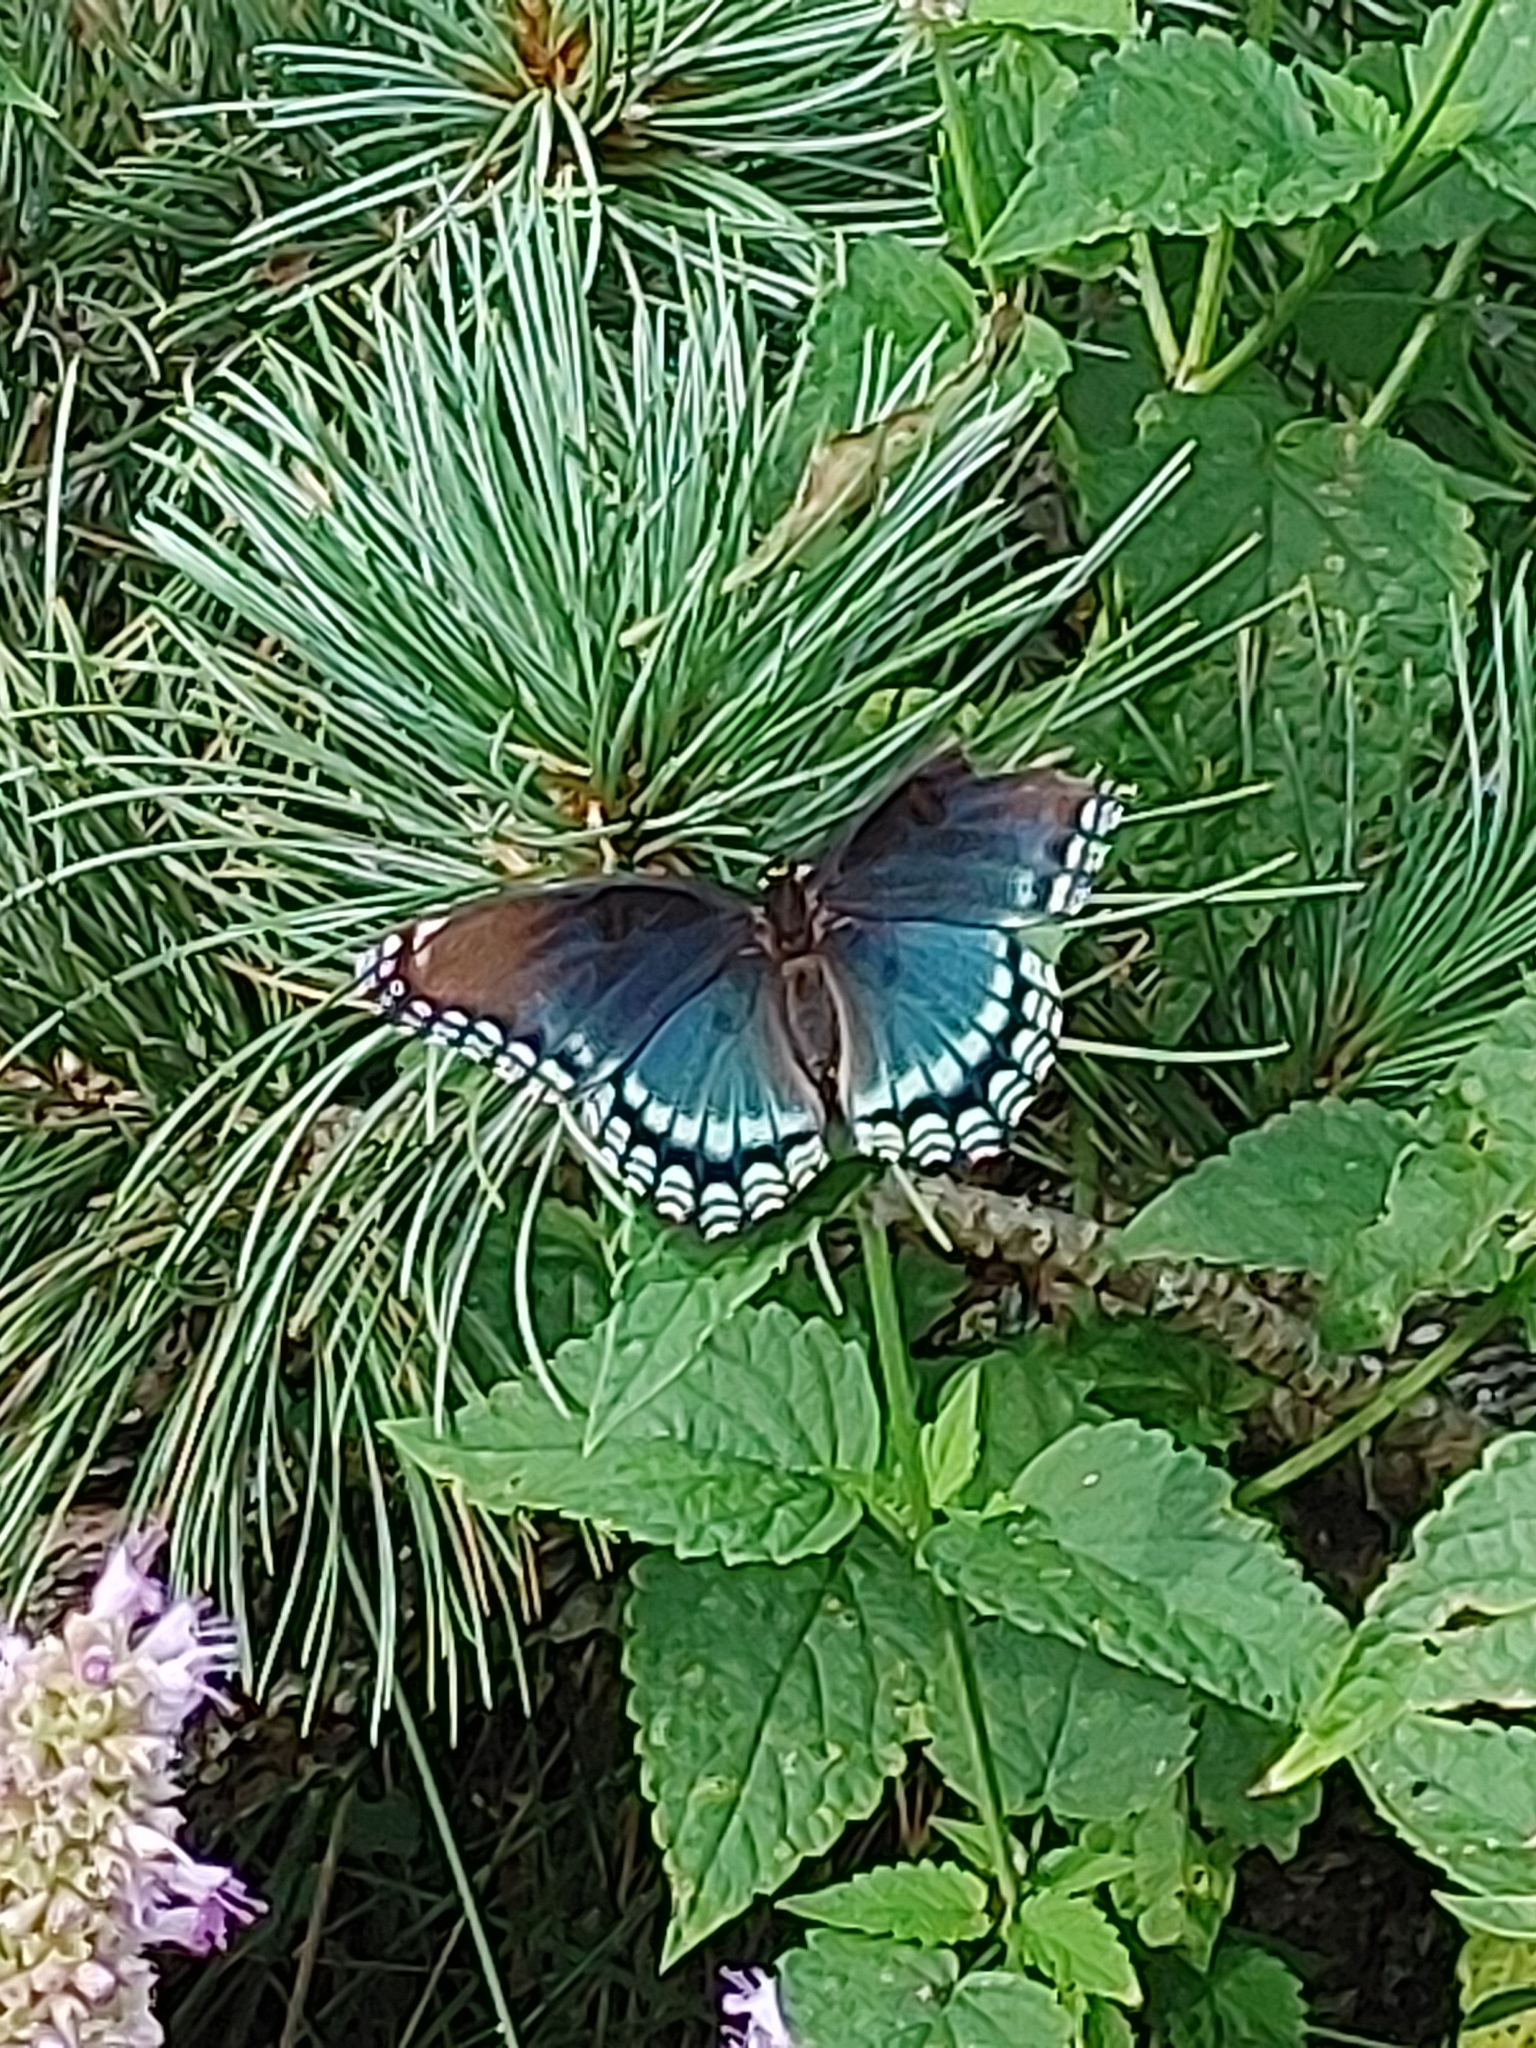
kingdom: Animalia
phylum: Arthropoda
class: Insecta
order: Lepidoptera
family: Nymphalidae
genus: Limenitis
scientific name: Limenitis arthemis
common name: Red-spotted admiral
